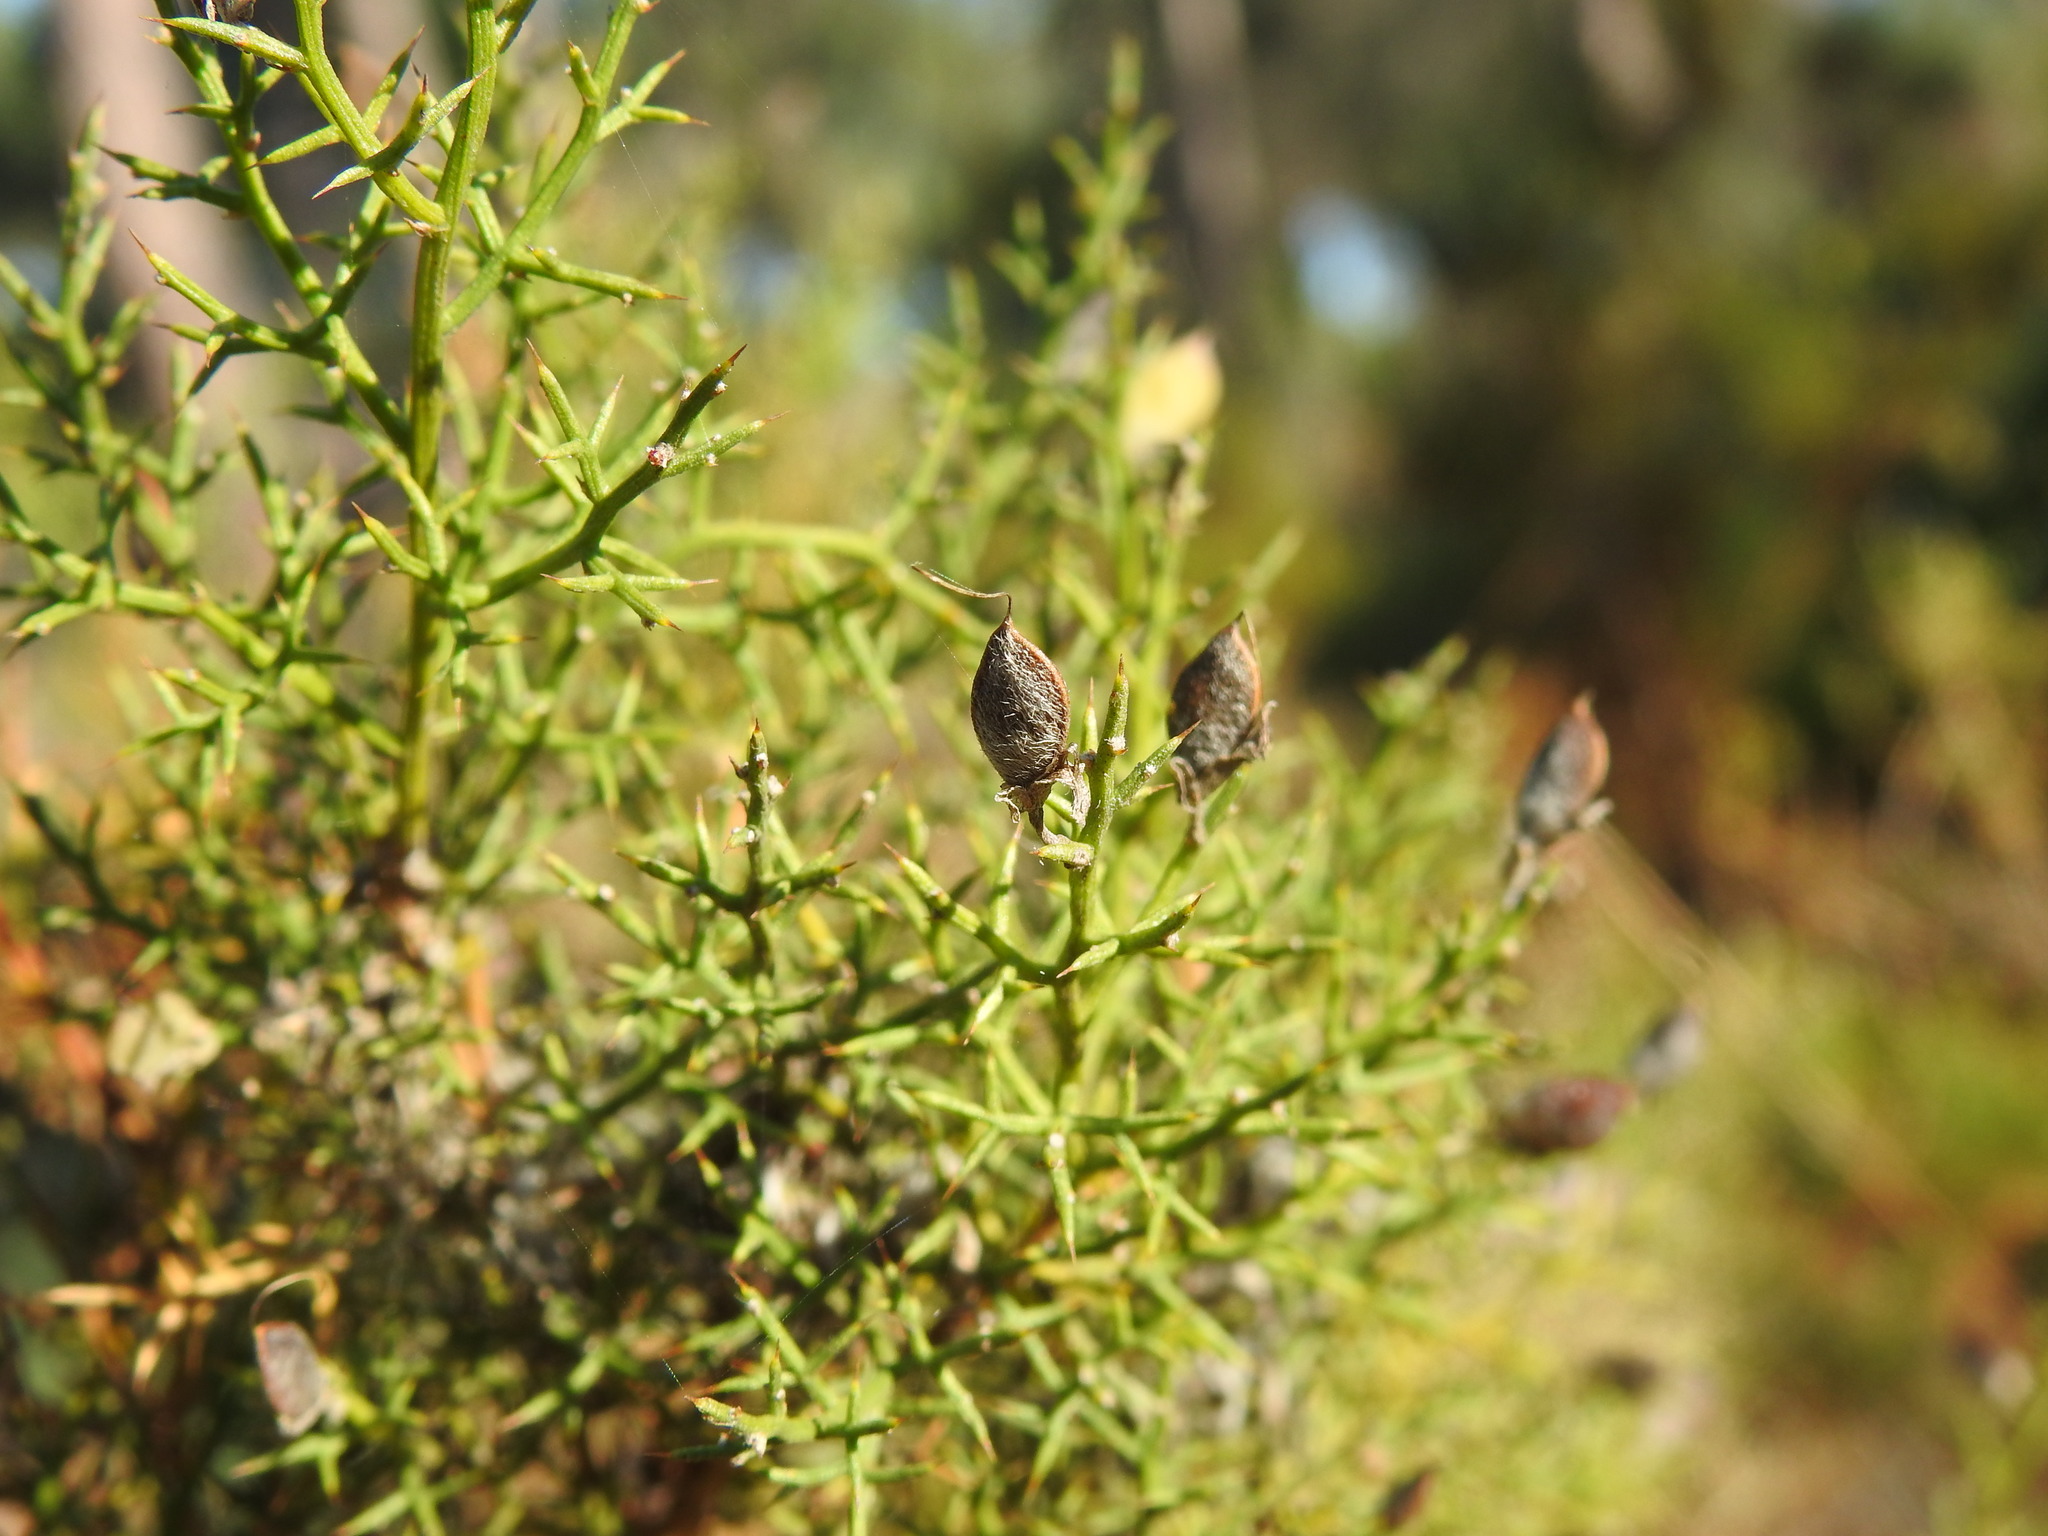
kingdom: Plantae
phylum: Tracheophyta
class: Magnoliopsida
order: Fabales
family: Fabaceae
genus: Stauracanthus
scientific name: Stauracanthus boivinii
